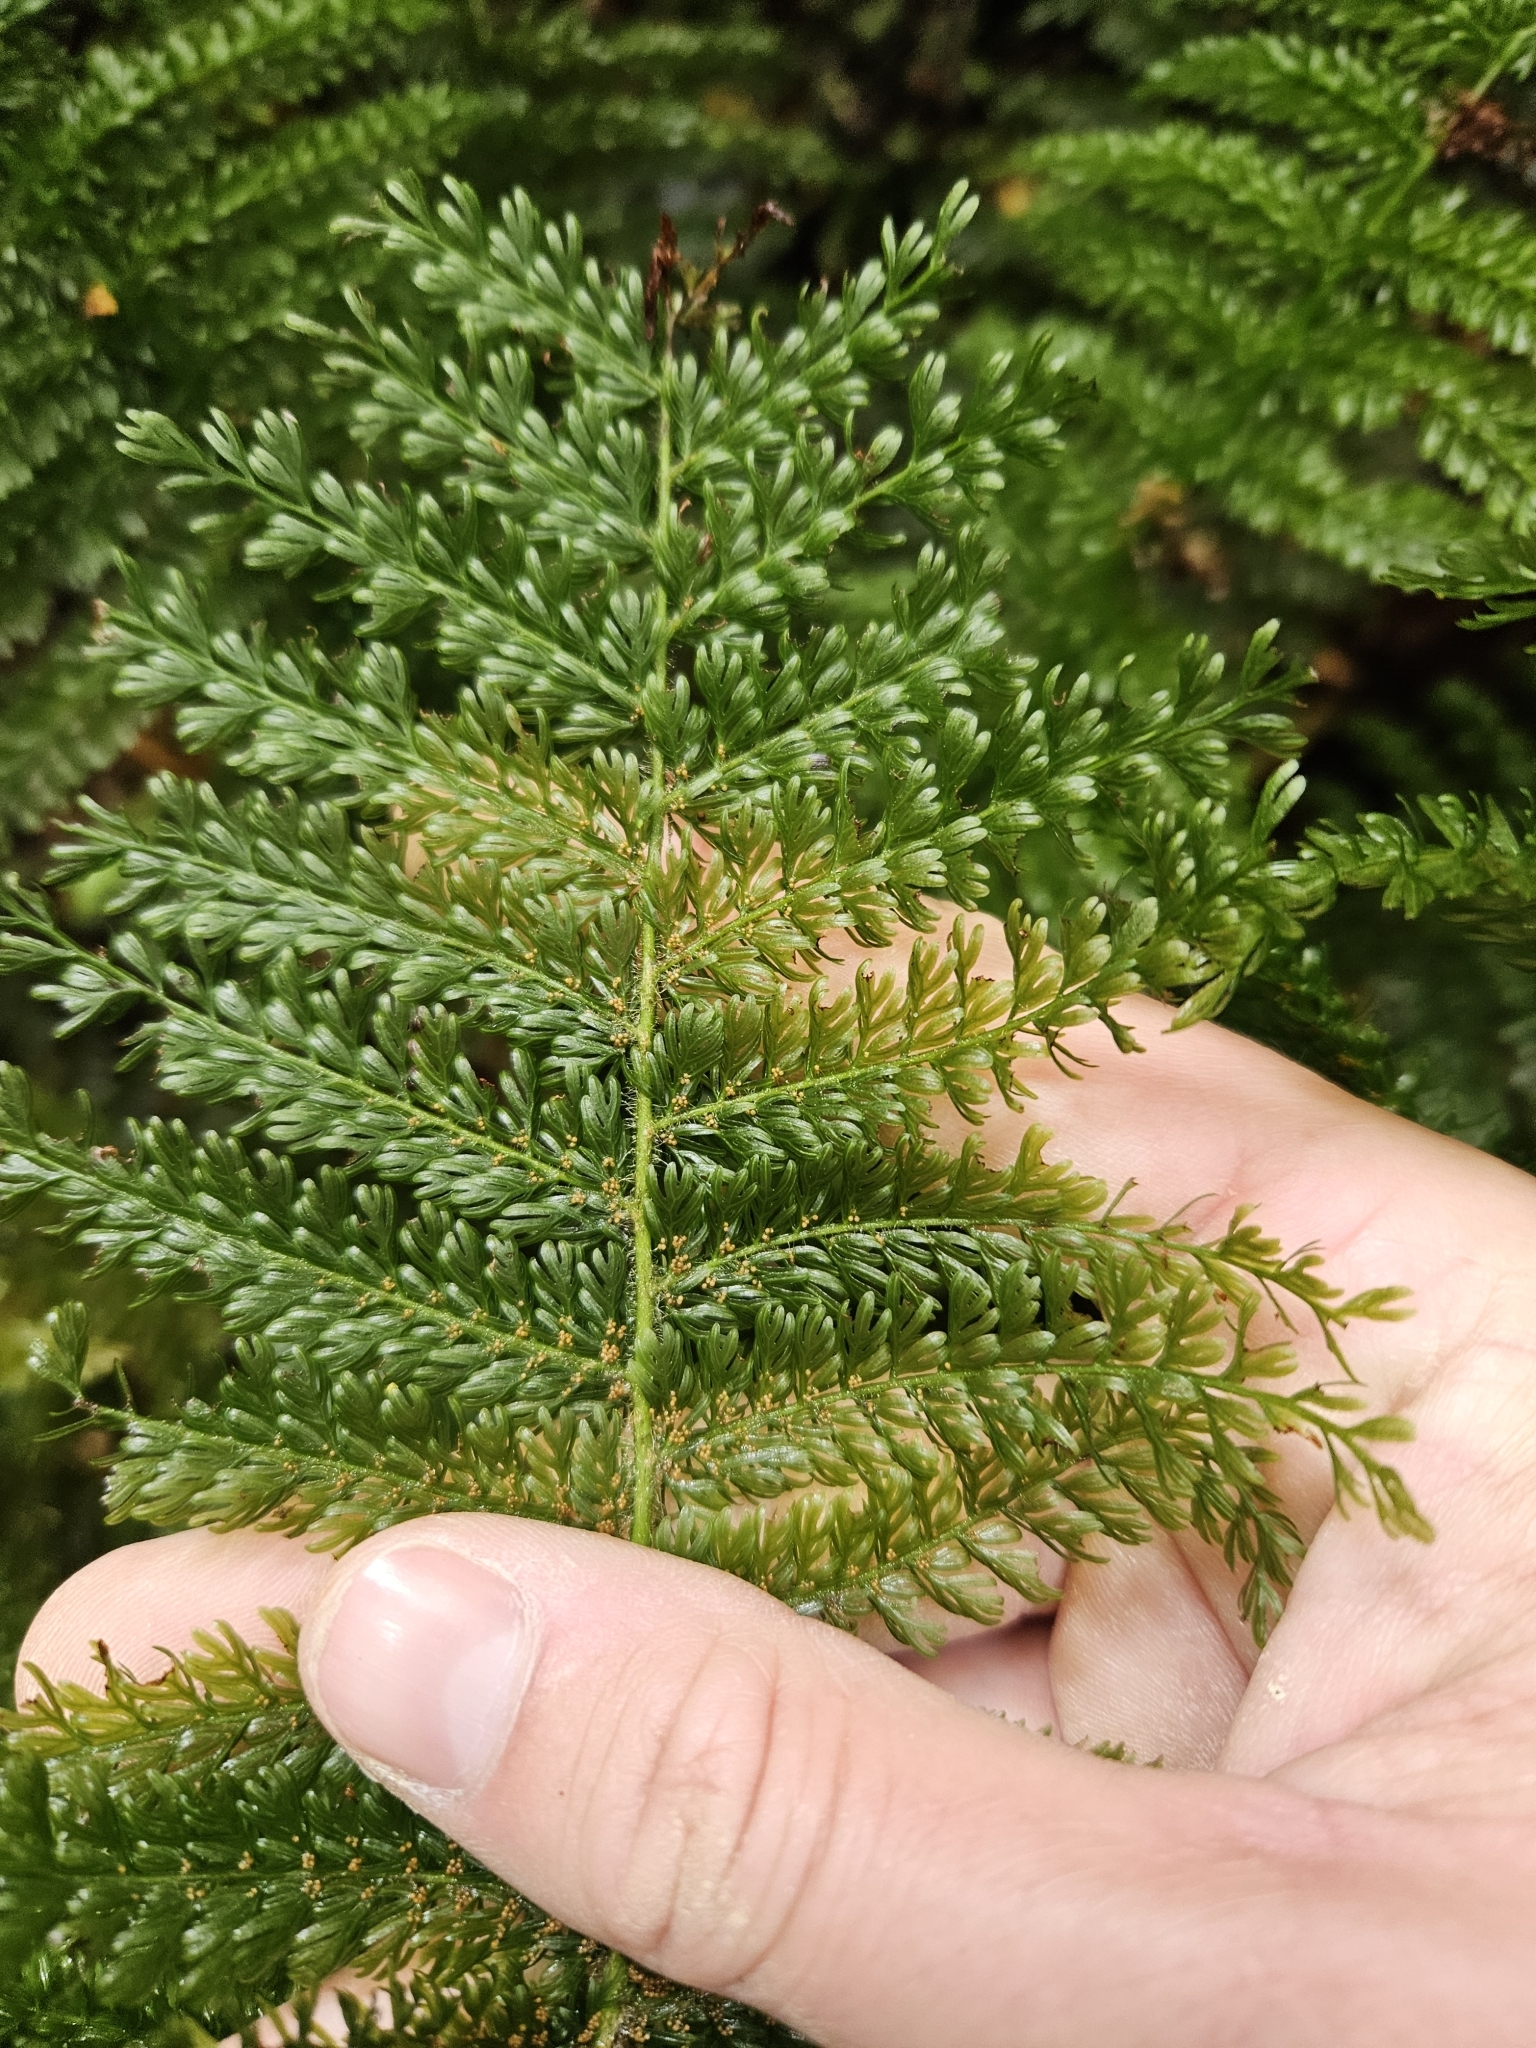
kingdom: Plantae
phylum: Tracheophyta
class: Polypodiopsida
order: Osmundales
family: Osmundaceae
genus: Leptopteris
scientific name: Leptopteris superba
